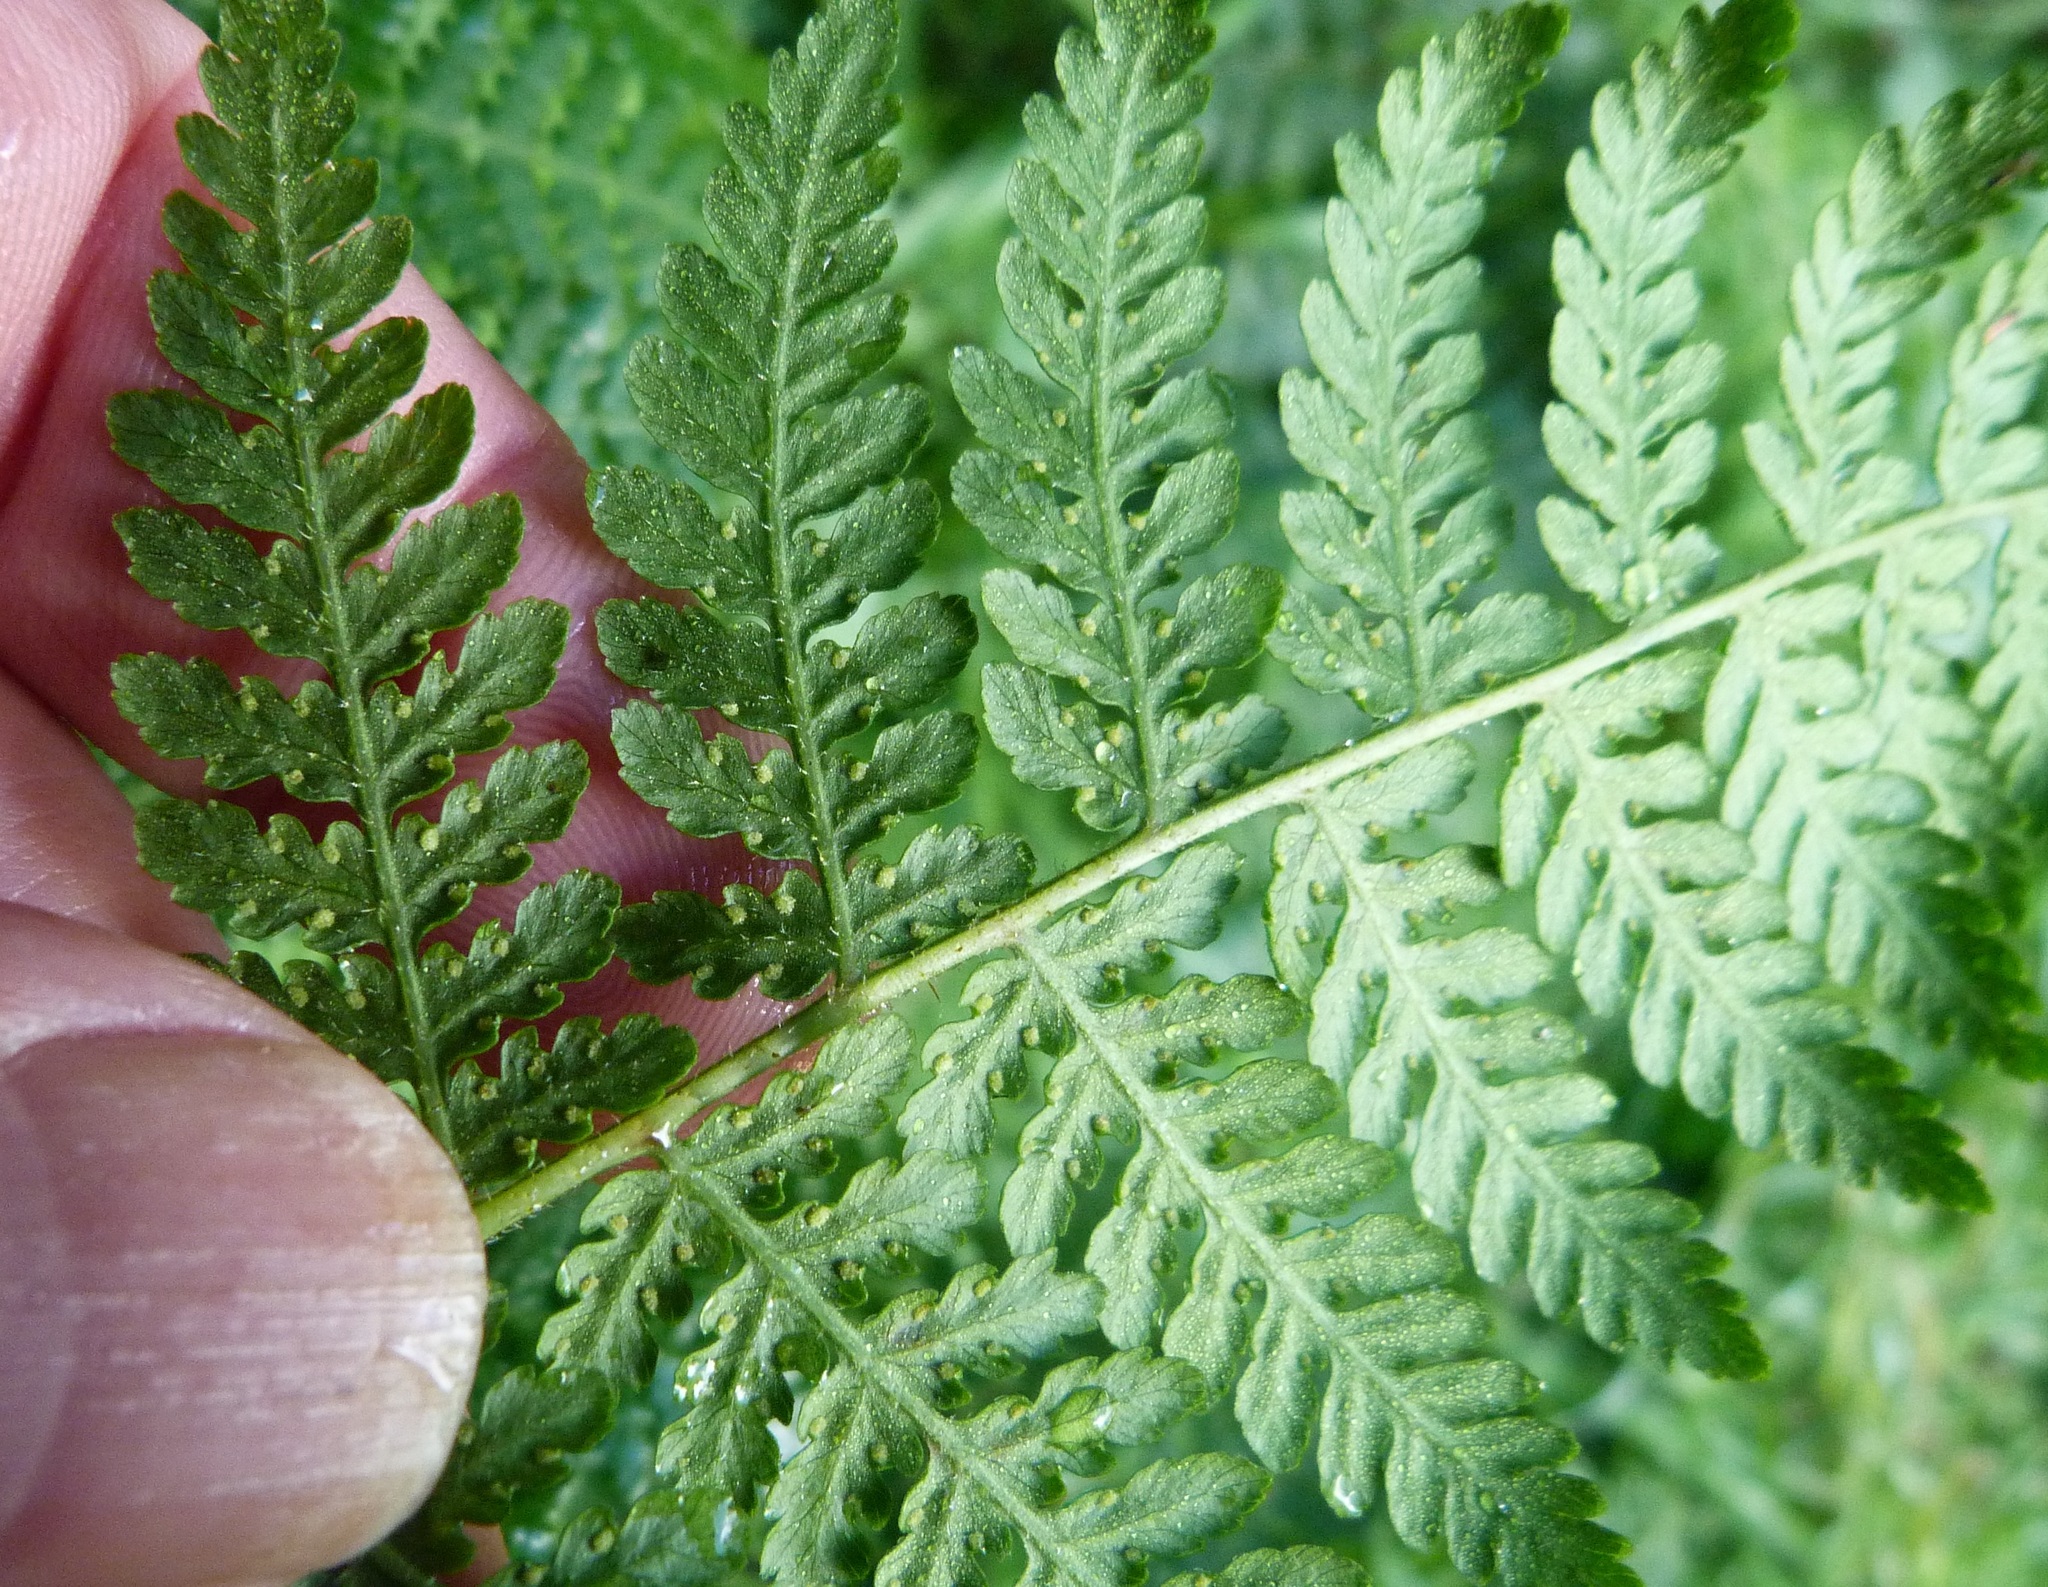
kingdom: Plantae
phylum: Tracheophyta
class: Polypodiopsida
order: Polypodiales
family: Dennstaedtiaceae
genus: Hypolepis
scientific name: Hypolepis ambigua
